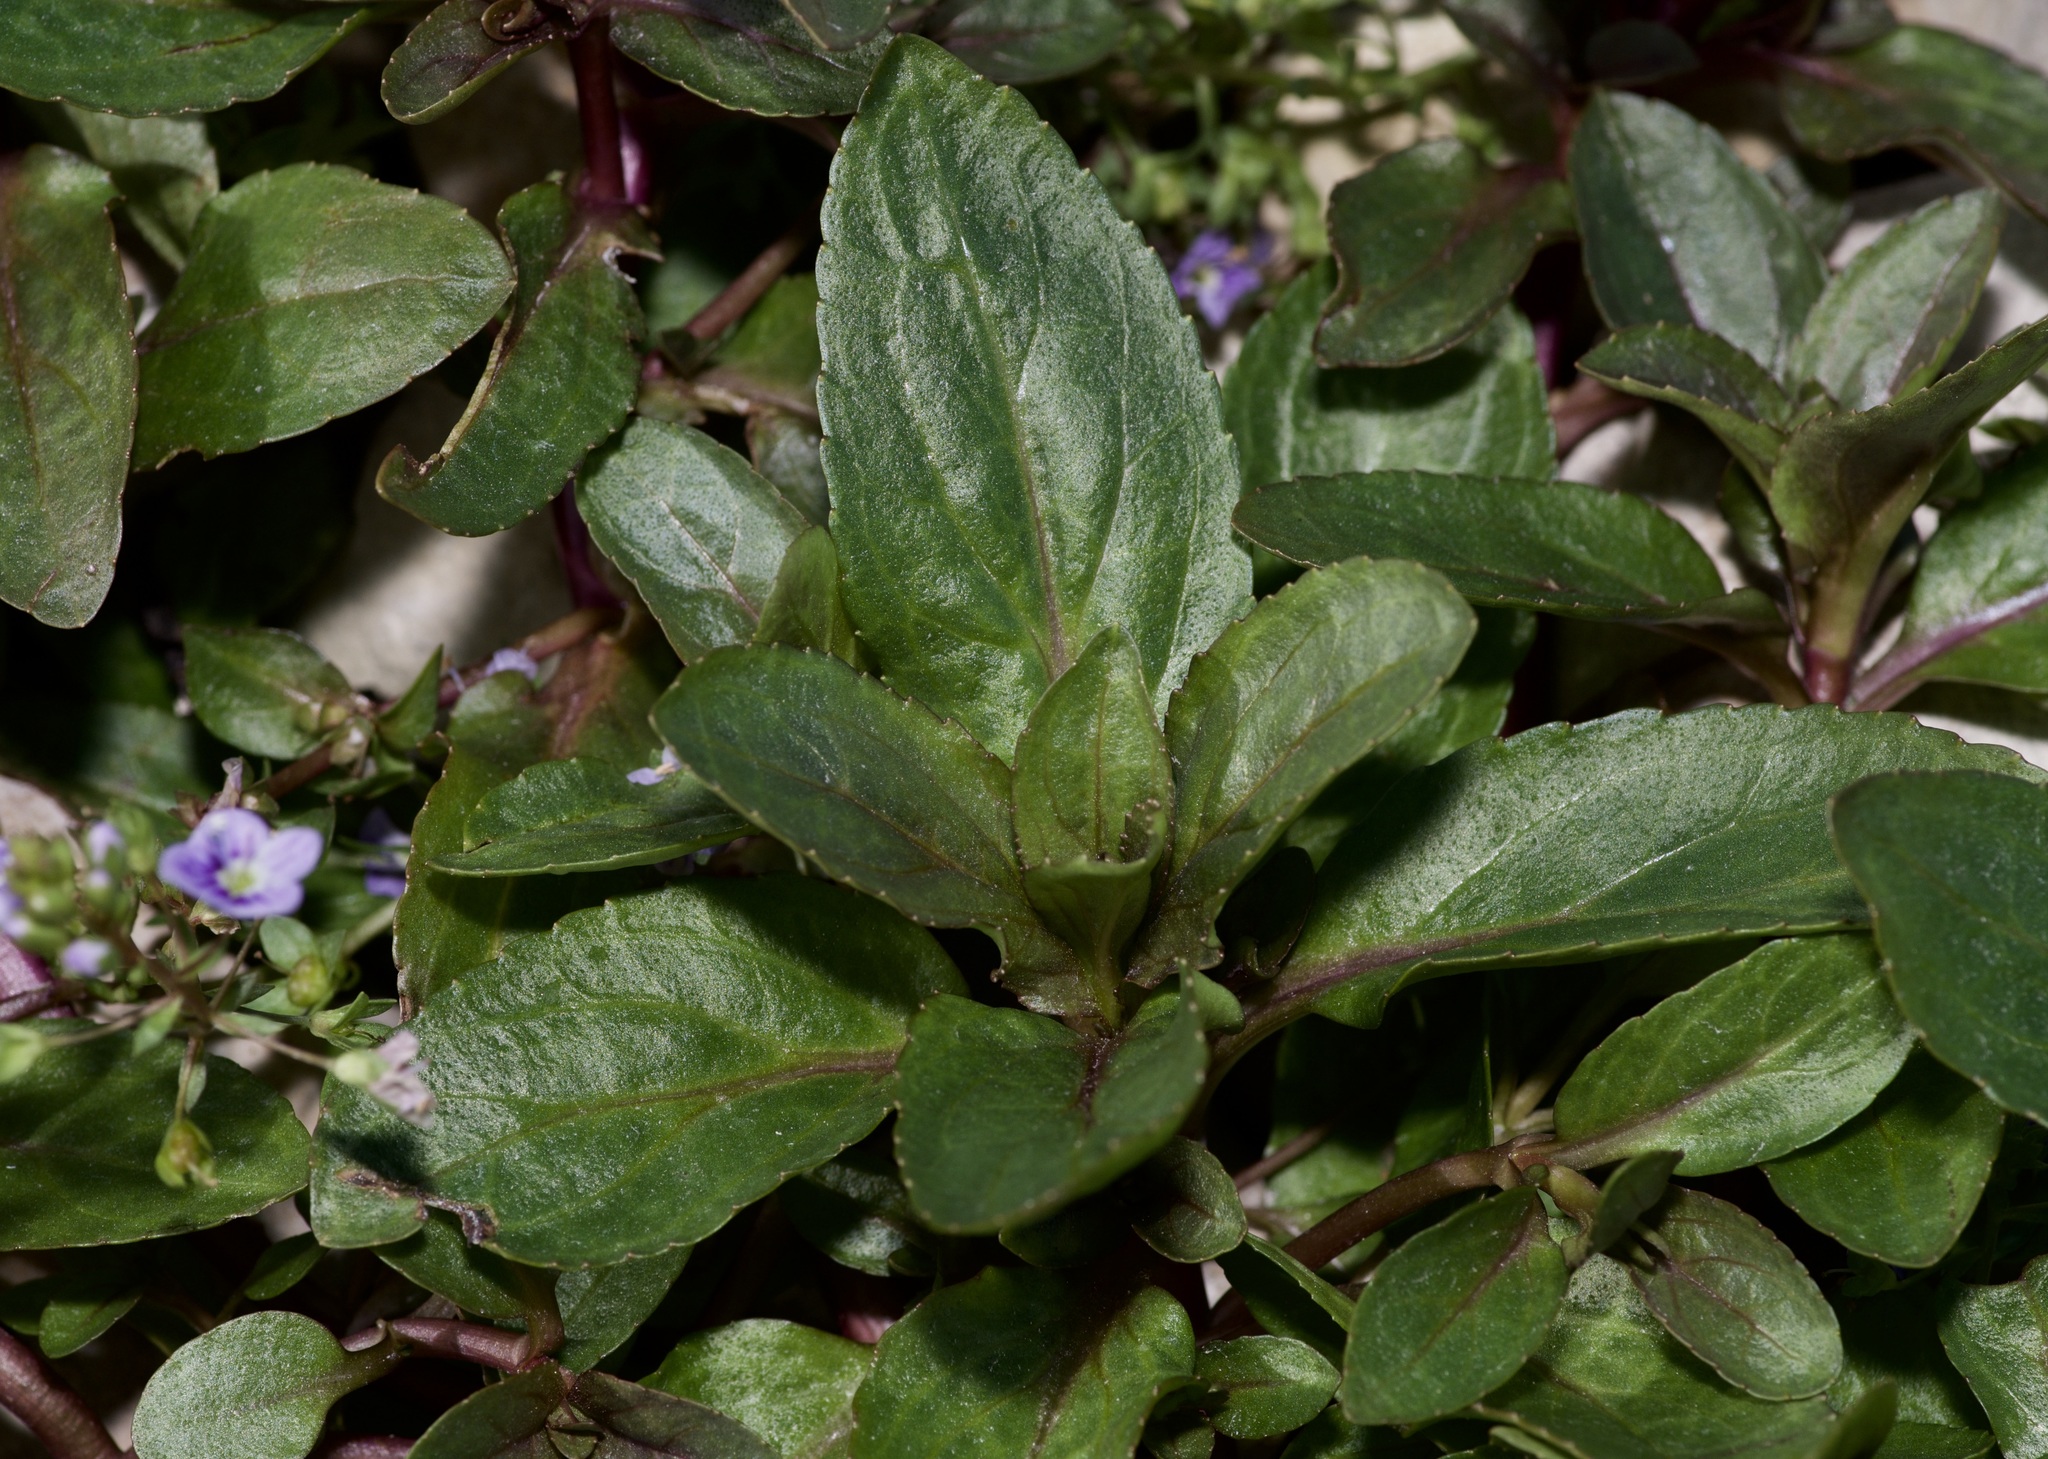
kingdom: Plantae
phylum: Tracheophyta
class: Magnoliopsida
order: Lamiales
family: Plantaginaceae
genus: Veronica
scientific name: Veronica anagallis-aquatica
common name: Water speedwell
